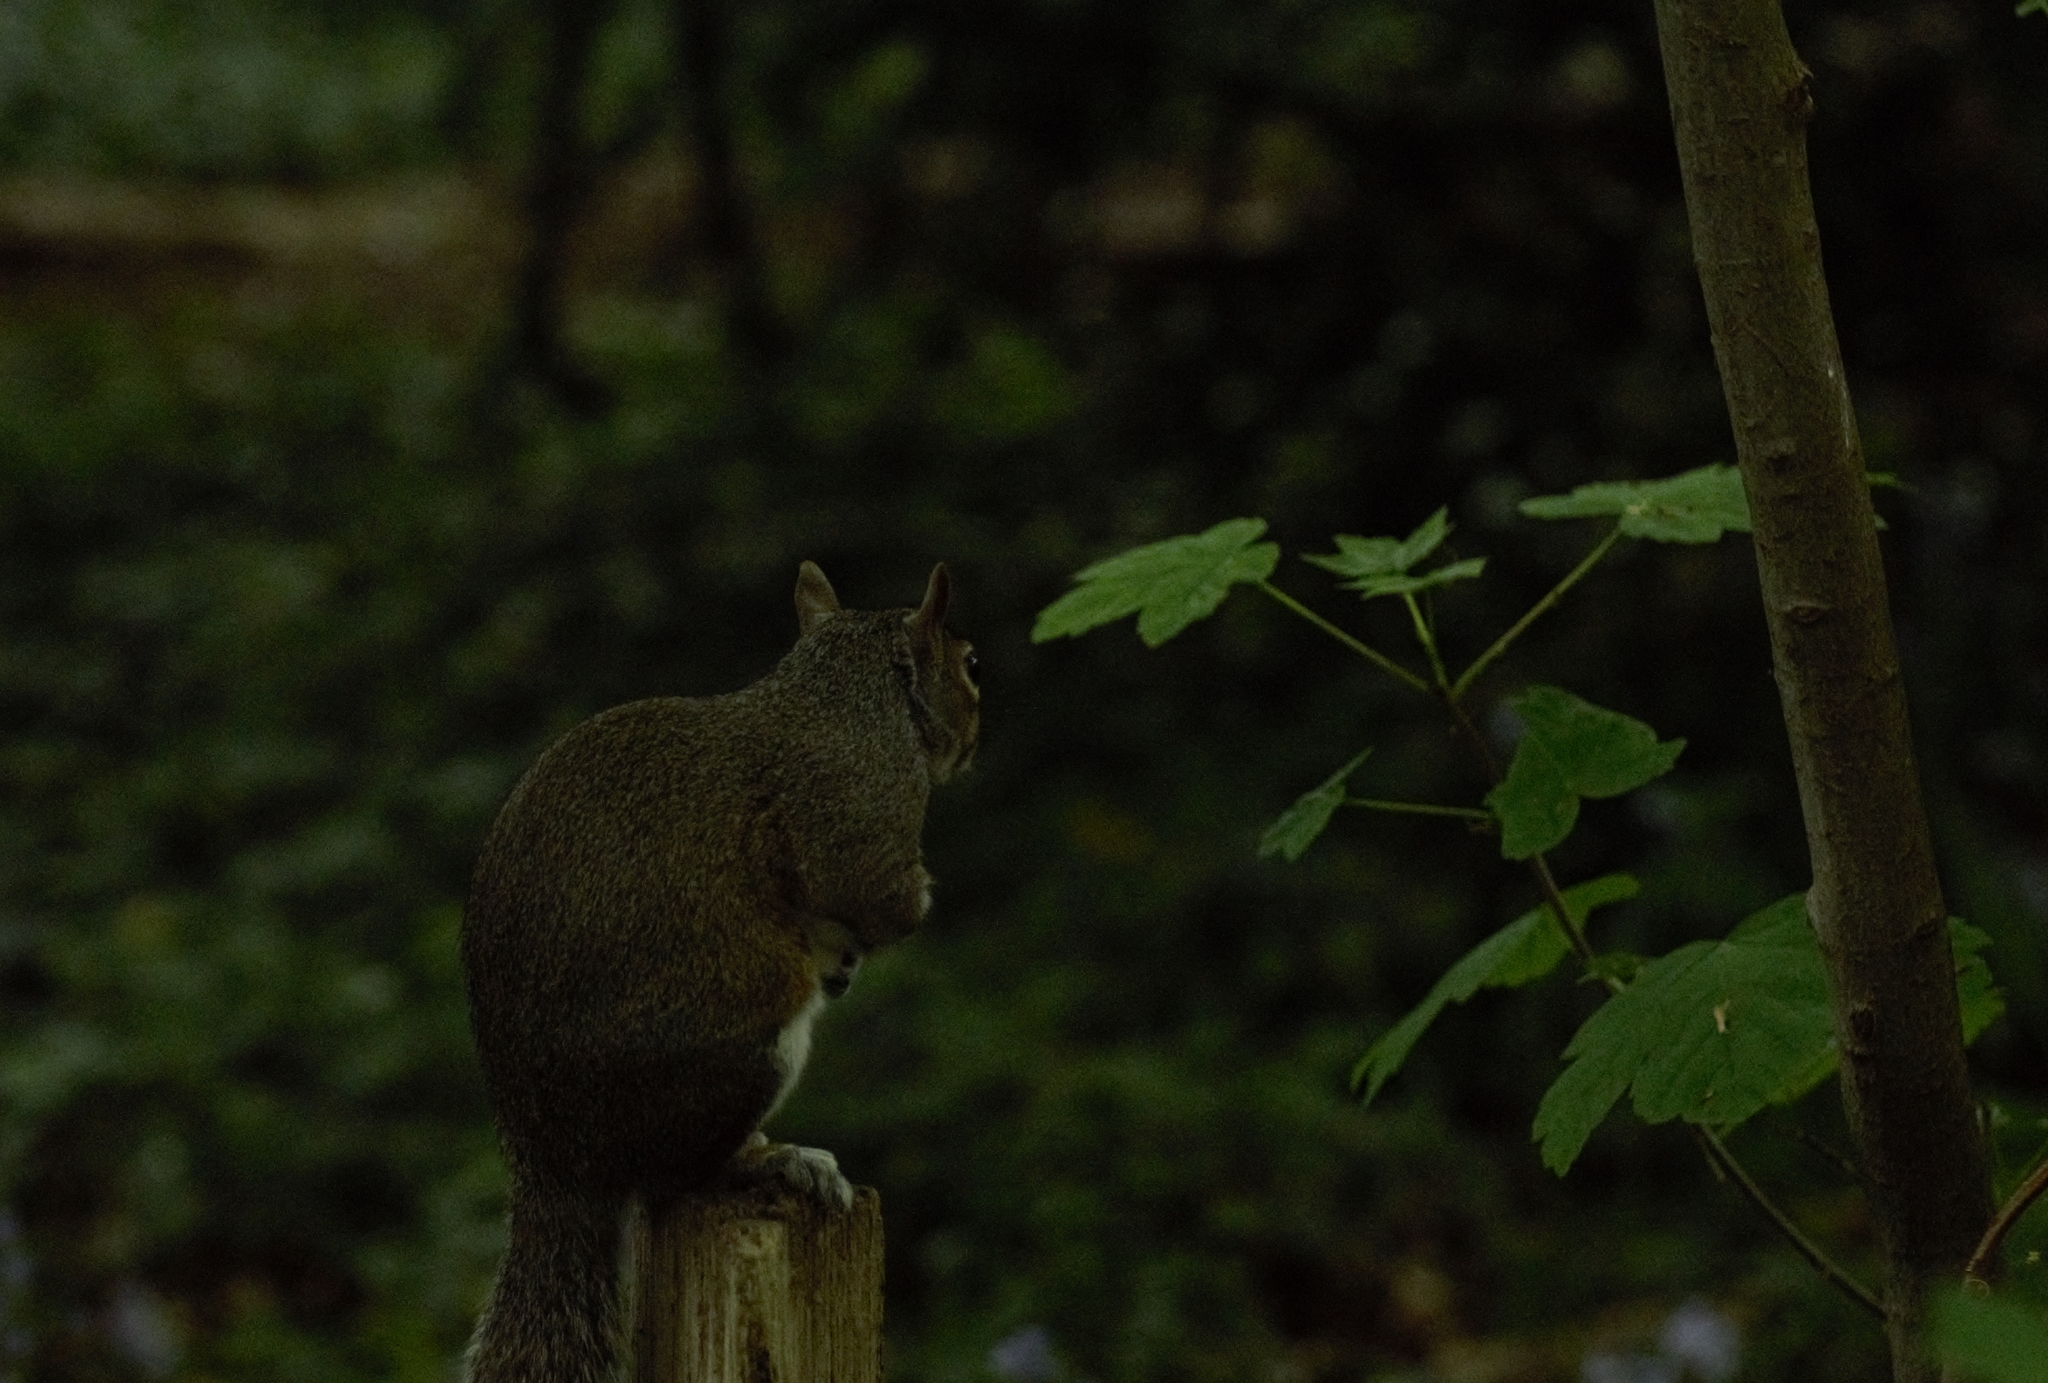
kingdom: Animalia
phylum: Chordata
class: Mammalia
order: Rodentia
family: Sciuridae
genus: Sciurus
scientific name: Sciurus carolinensis
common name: Eastern gray squirrel
